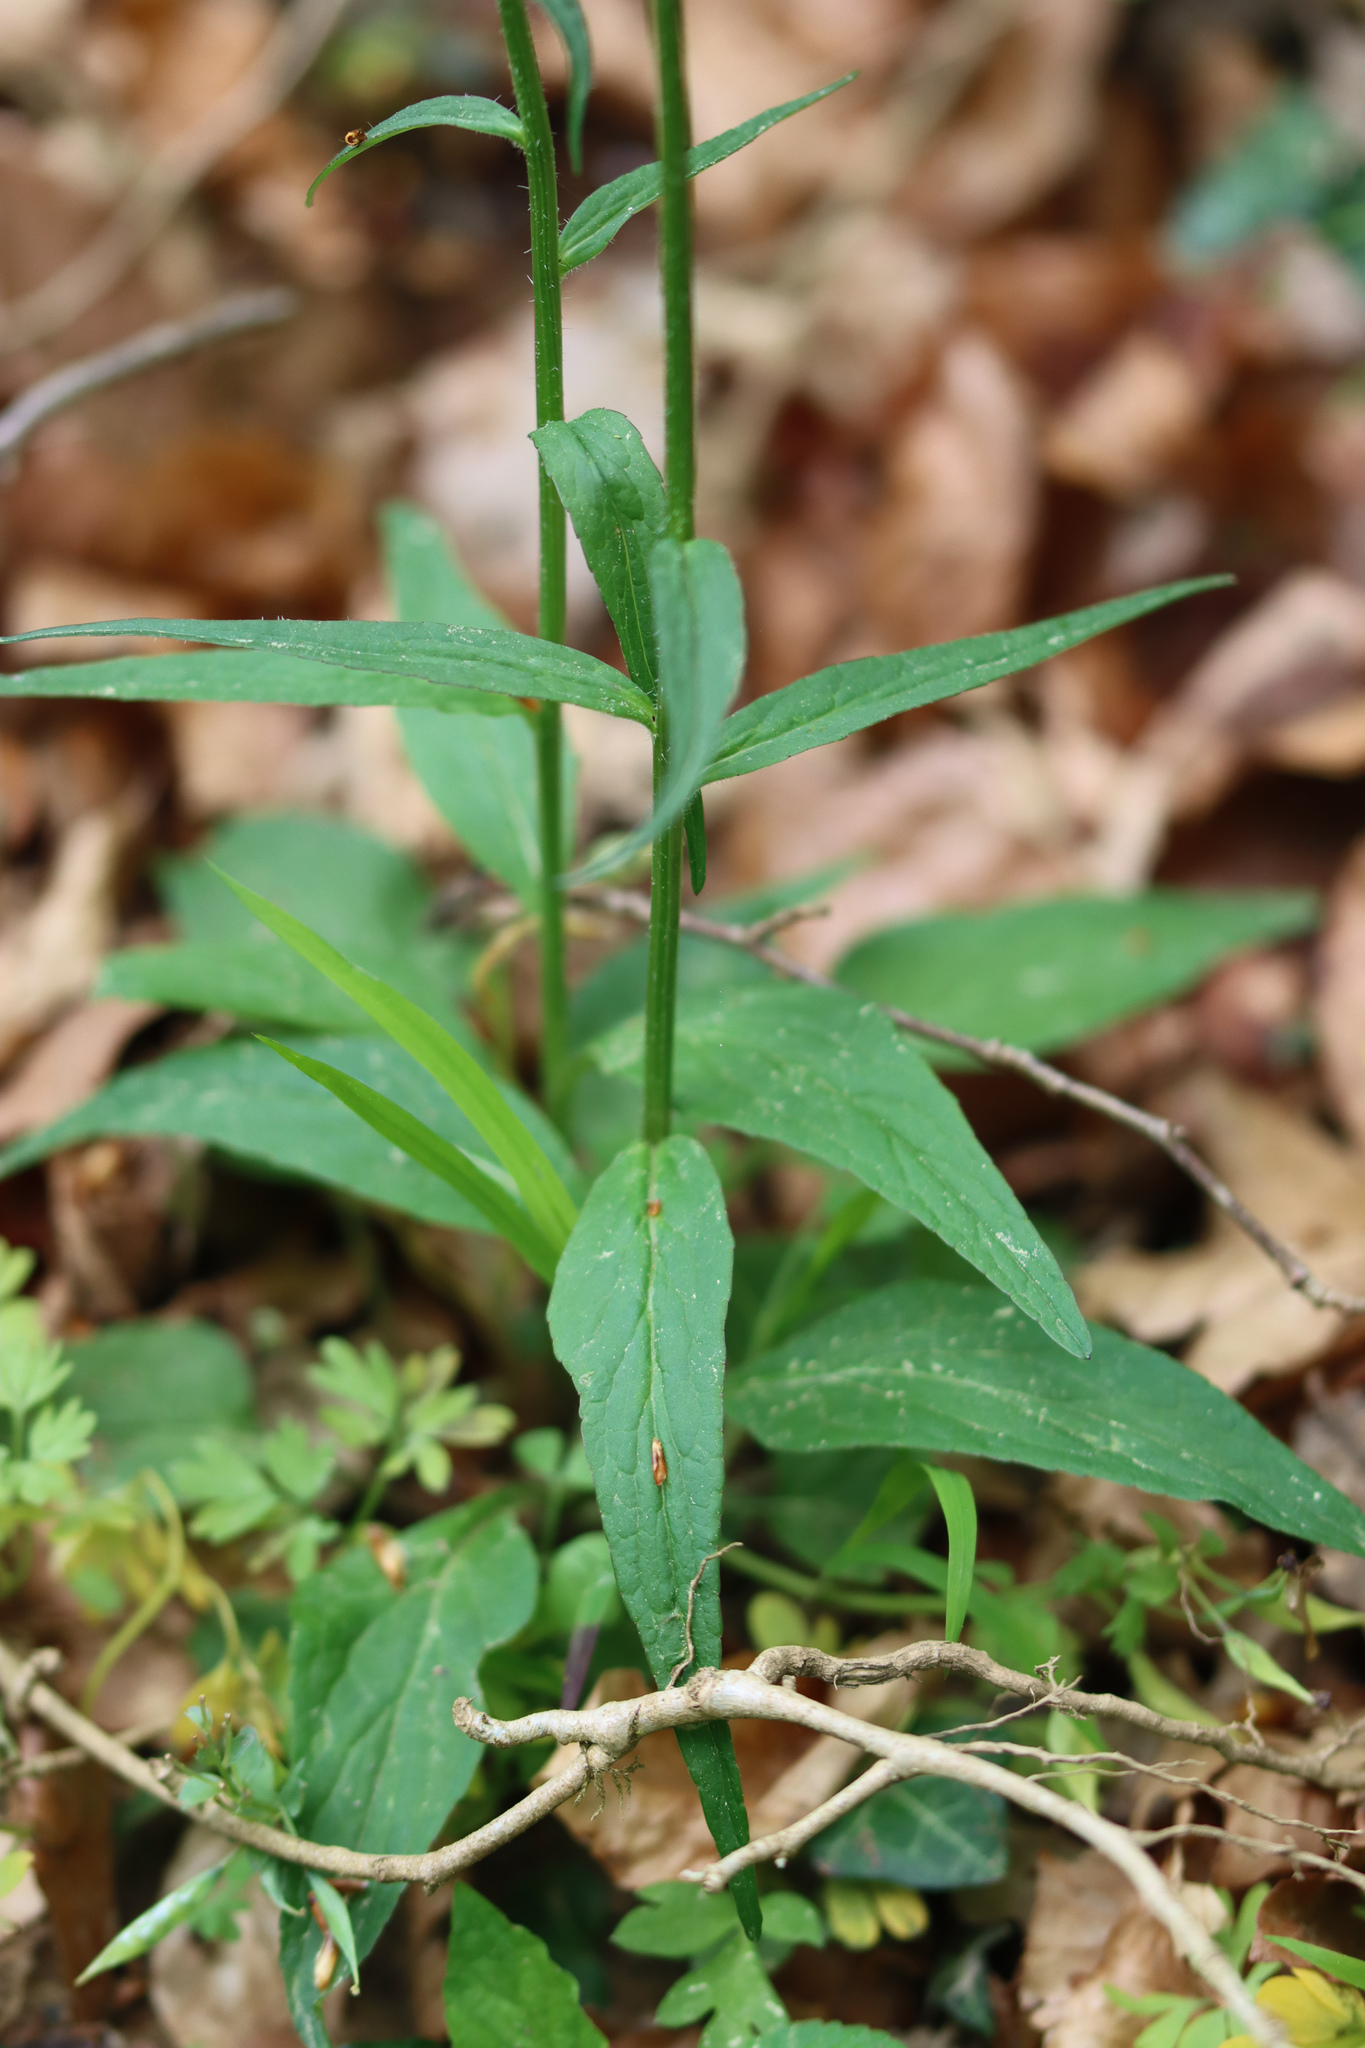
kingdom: Plantae
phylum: Tracheophyta
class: Magnoliopsida
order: Asterales
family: Campanulaceae
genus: Phyteuma
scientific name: Phyteuma nigrum
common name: Black rampion
